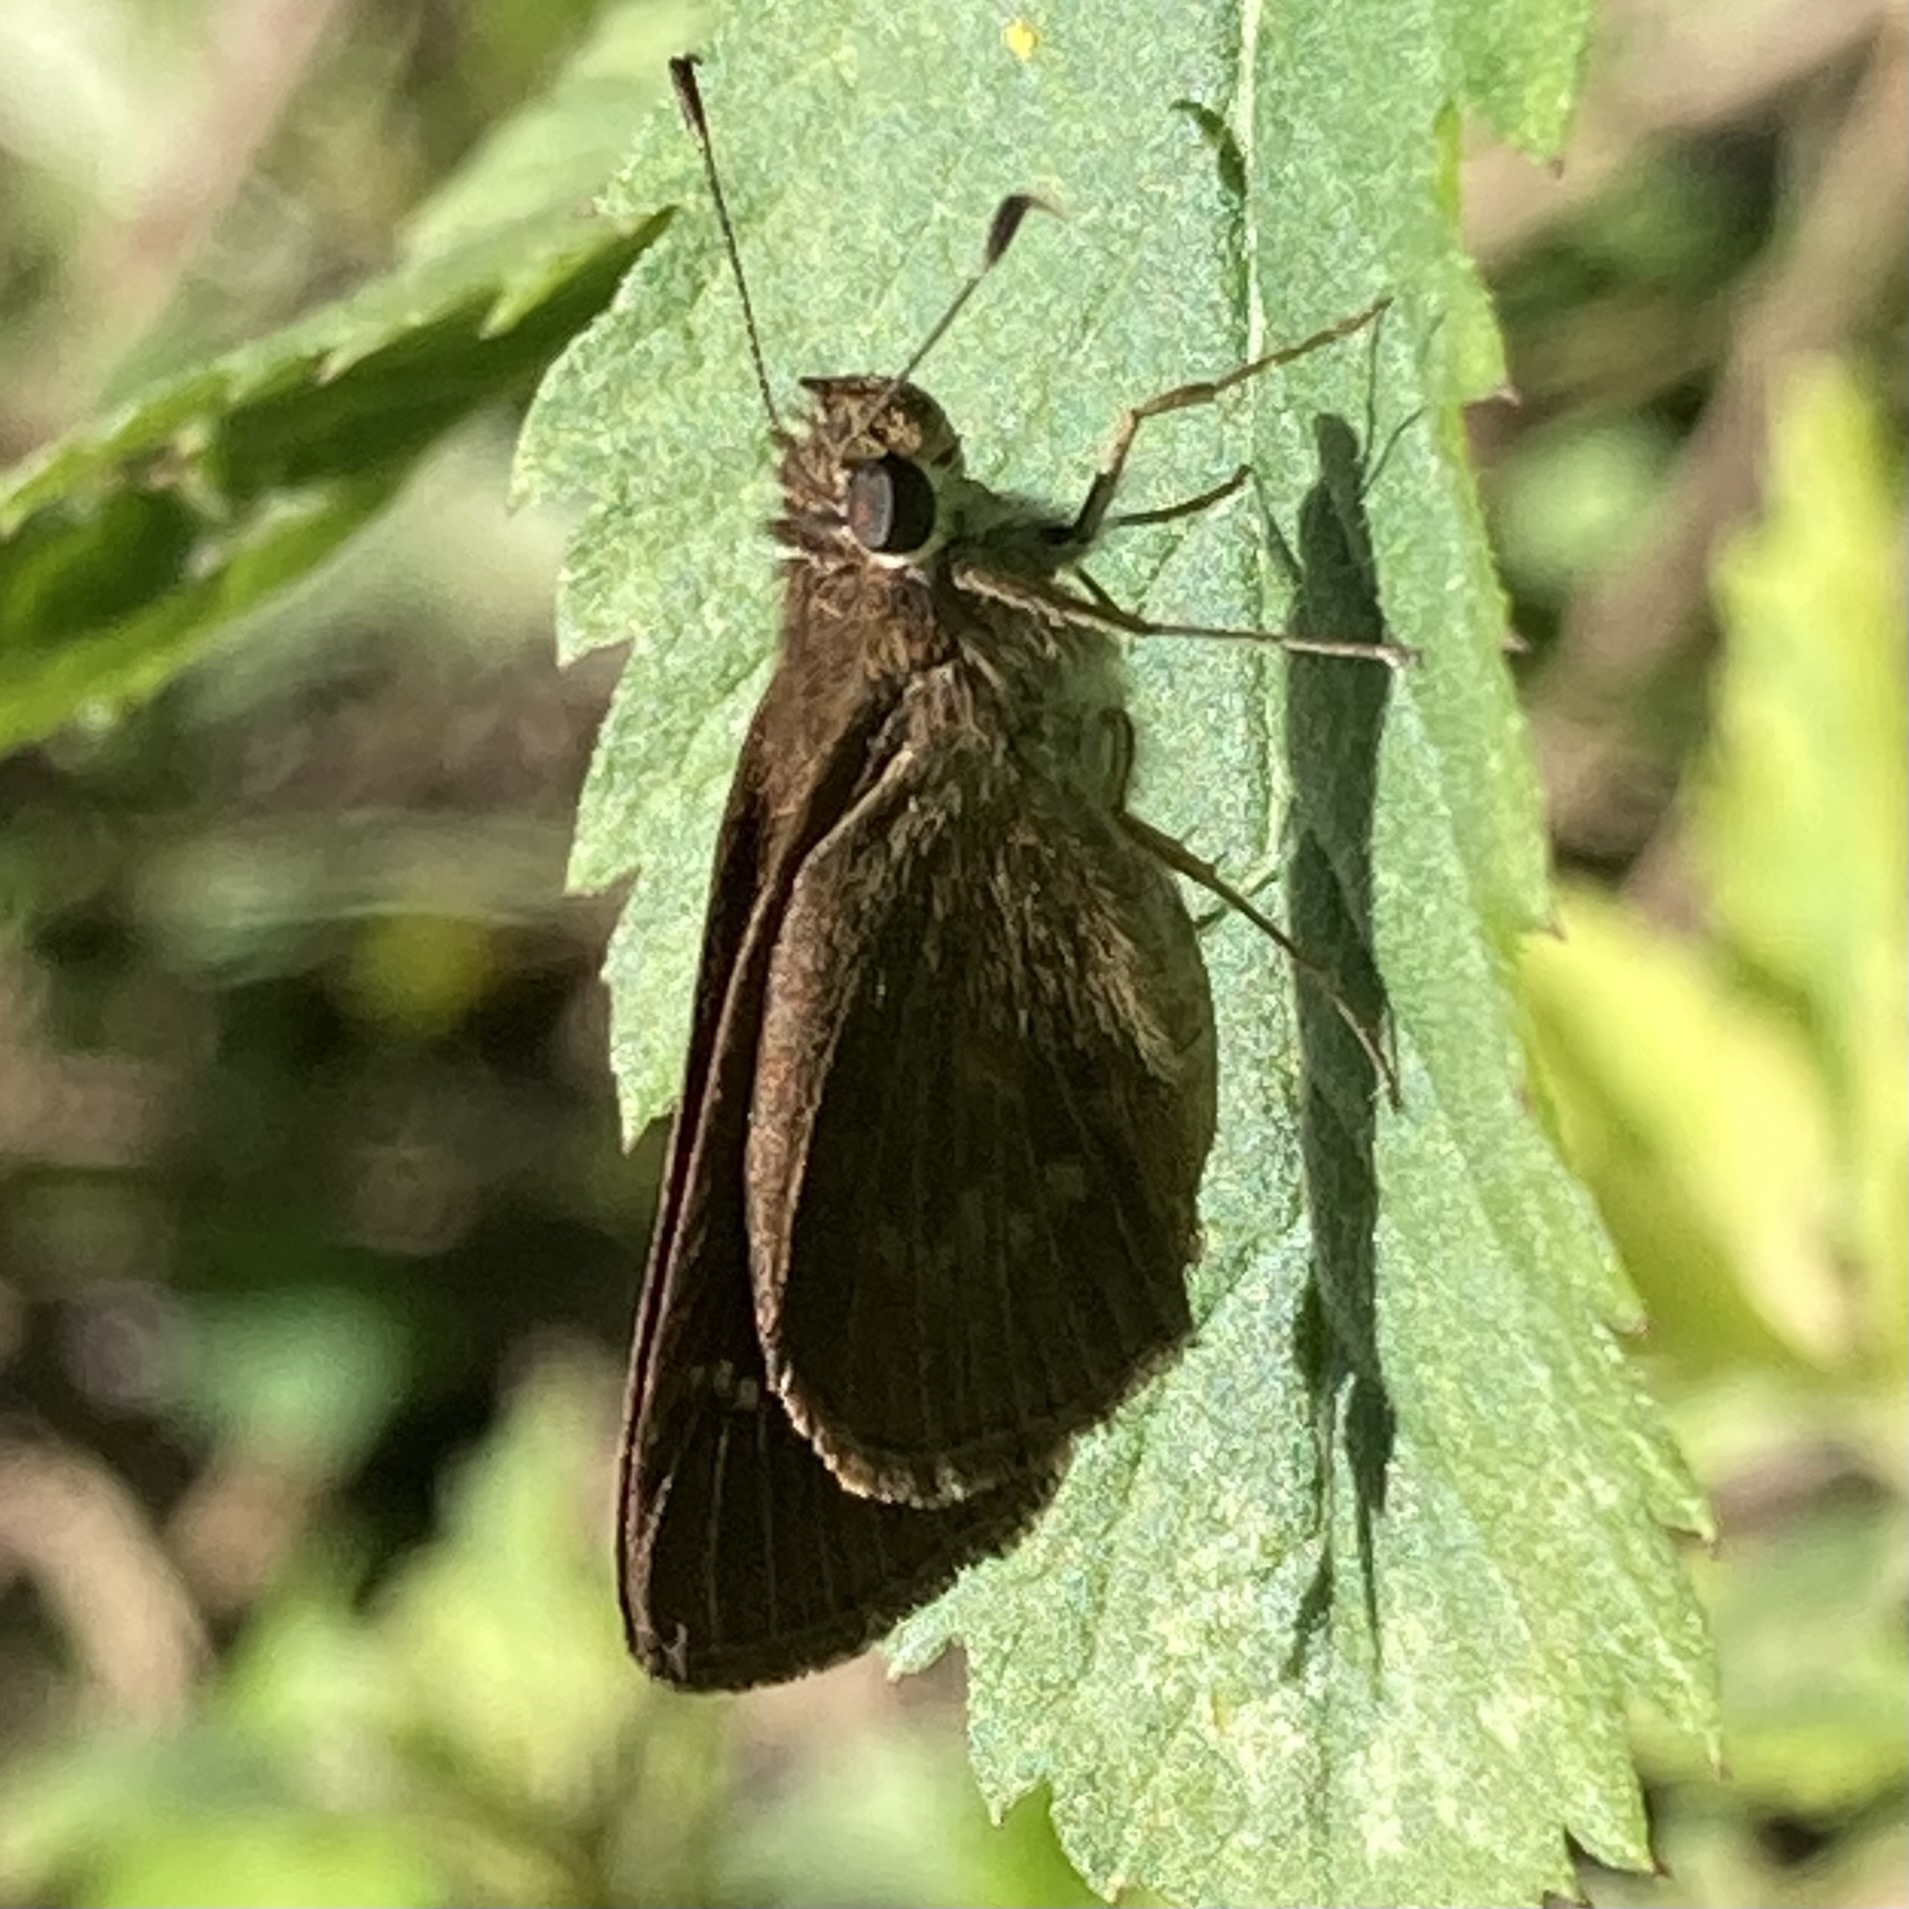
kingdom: Animalia
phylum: Arthropoda
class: Insecta
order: Lepidoptera
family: Hesperiidae
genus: Cymaenes
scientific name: Cymaenes tripunctus
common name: Dingy dotted skipper
